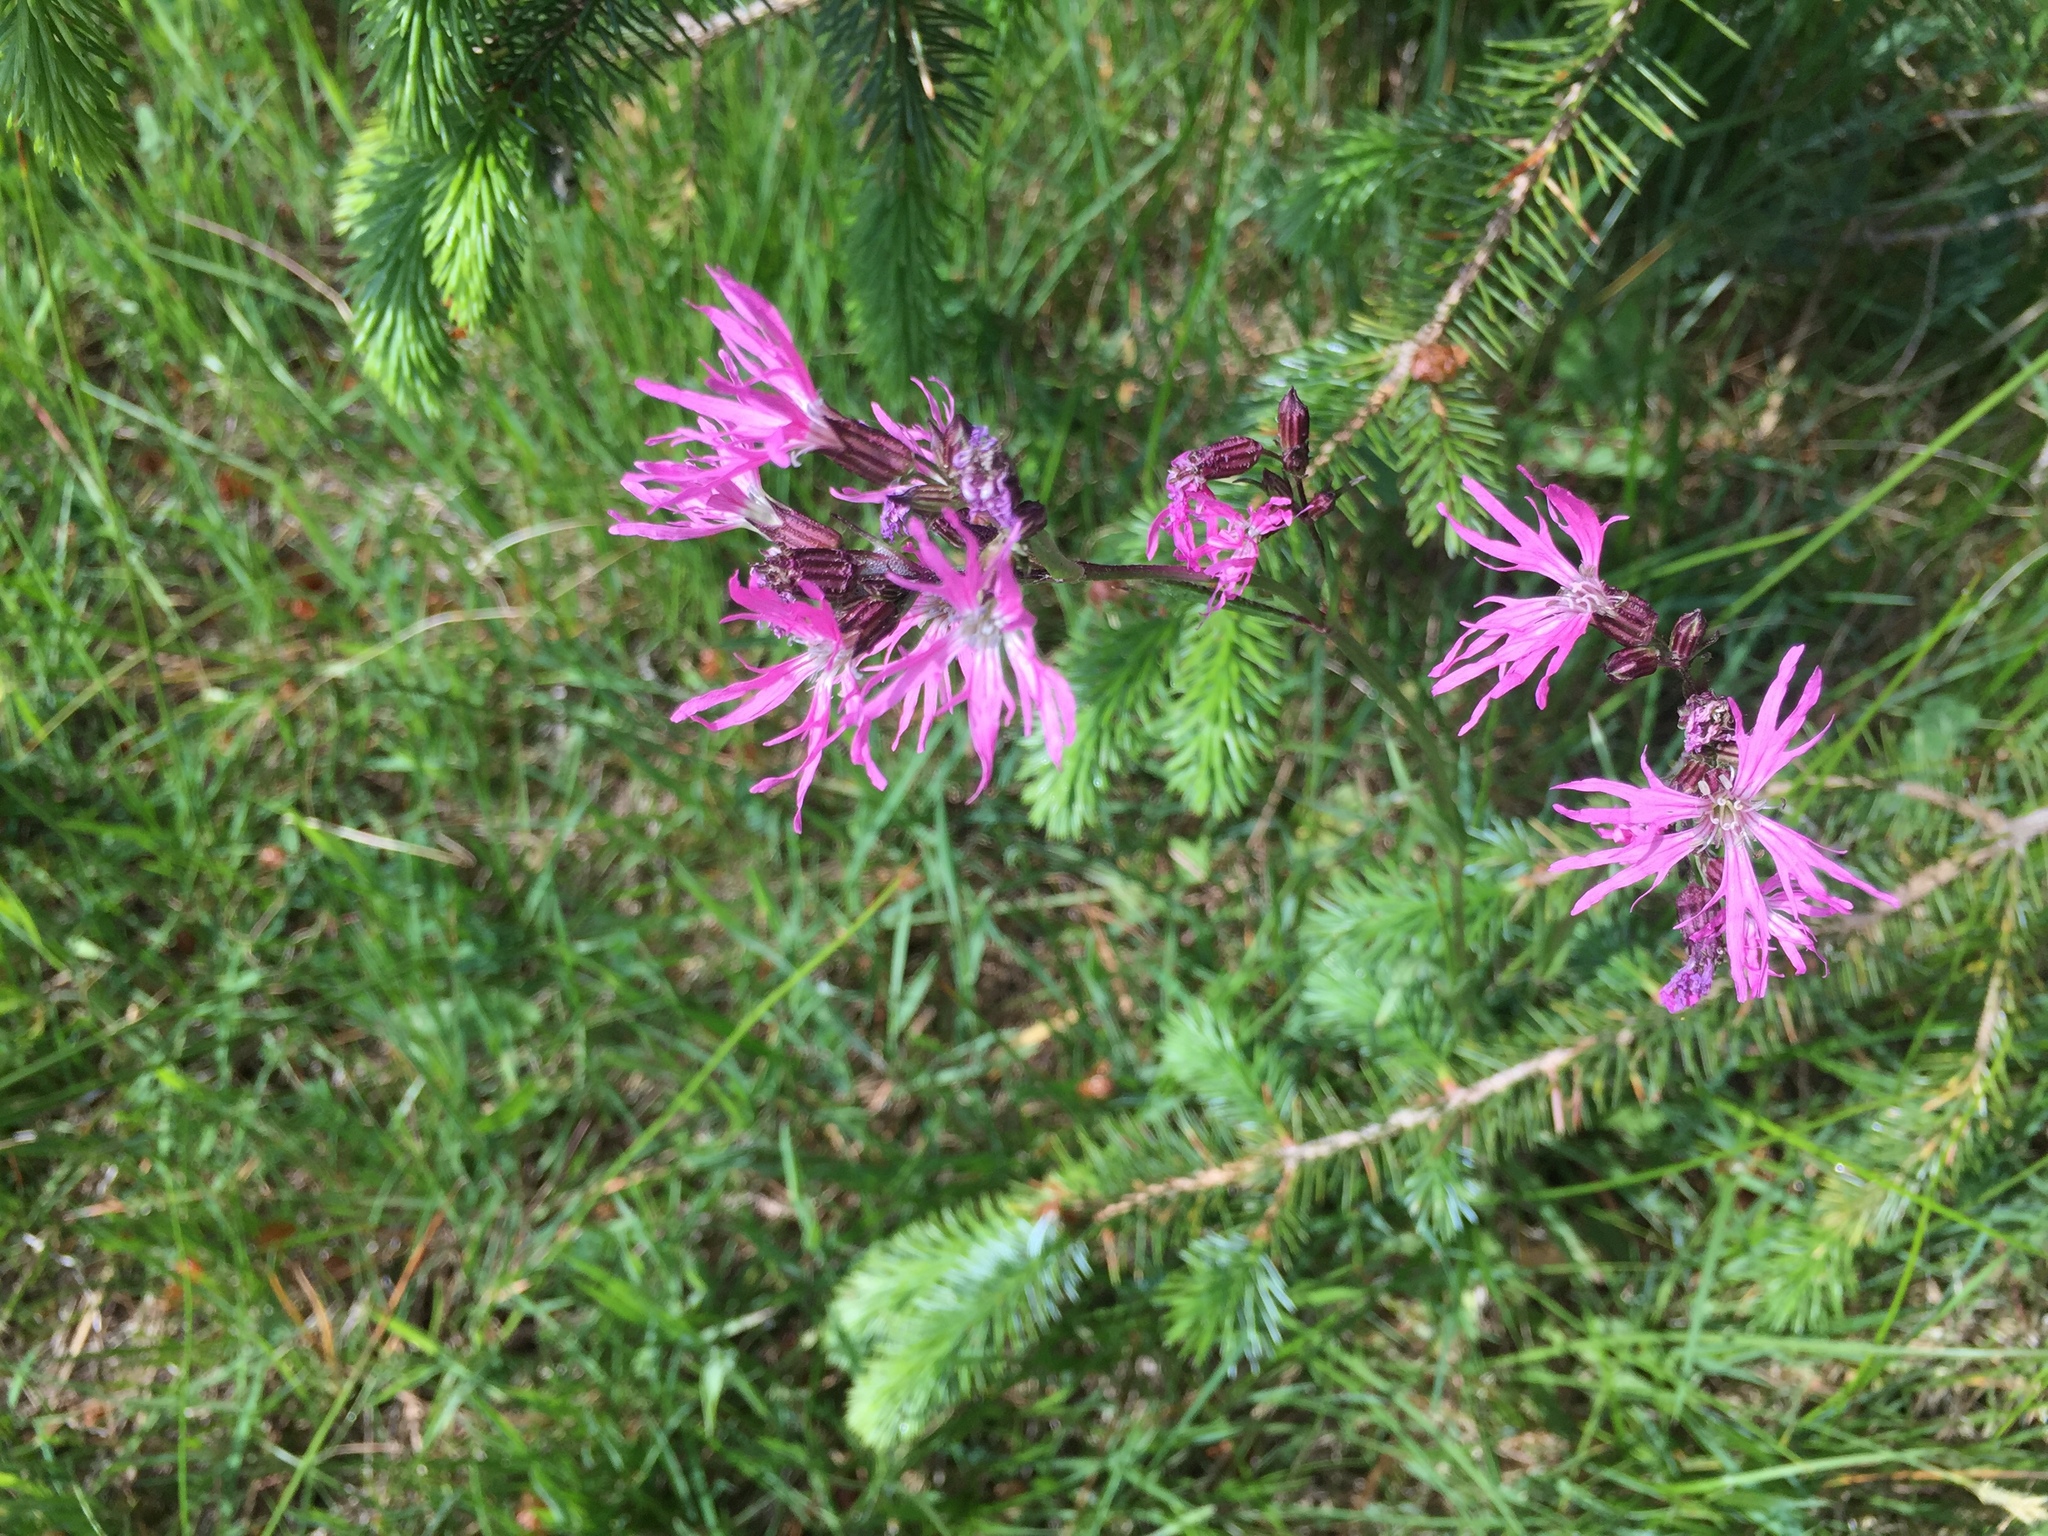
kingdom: Plantae
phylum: Tracheophyta
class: Magnoliopsida
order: Caryophyllales
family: Caryophyllaceae
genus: Silene
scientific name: Silene flos-cuculi
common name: Ragged-robin
